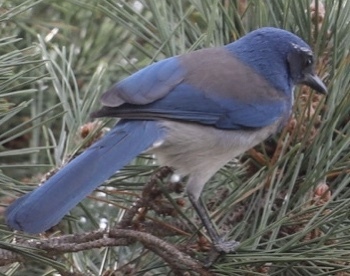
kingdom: Animalia
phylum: Chordata
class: Aves
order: Passeriformes
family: Corvidae
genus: Aphelocoma
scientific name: Aphelocoma californica
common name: California scrub-jay
